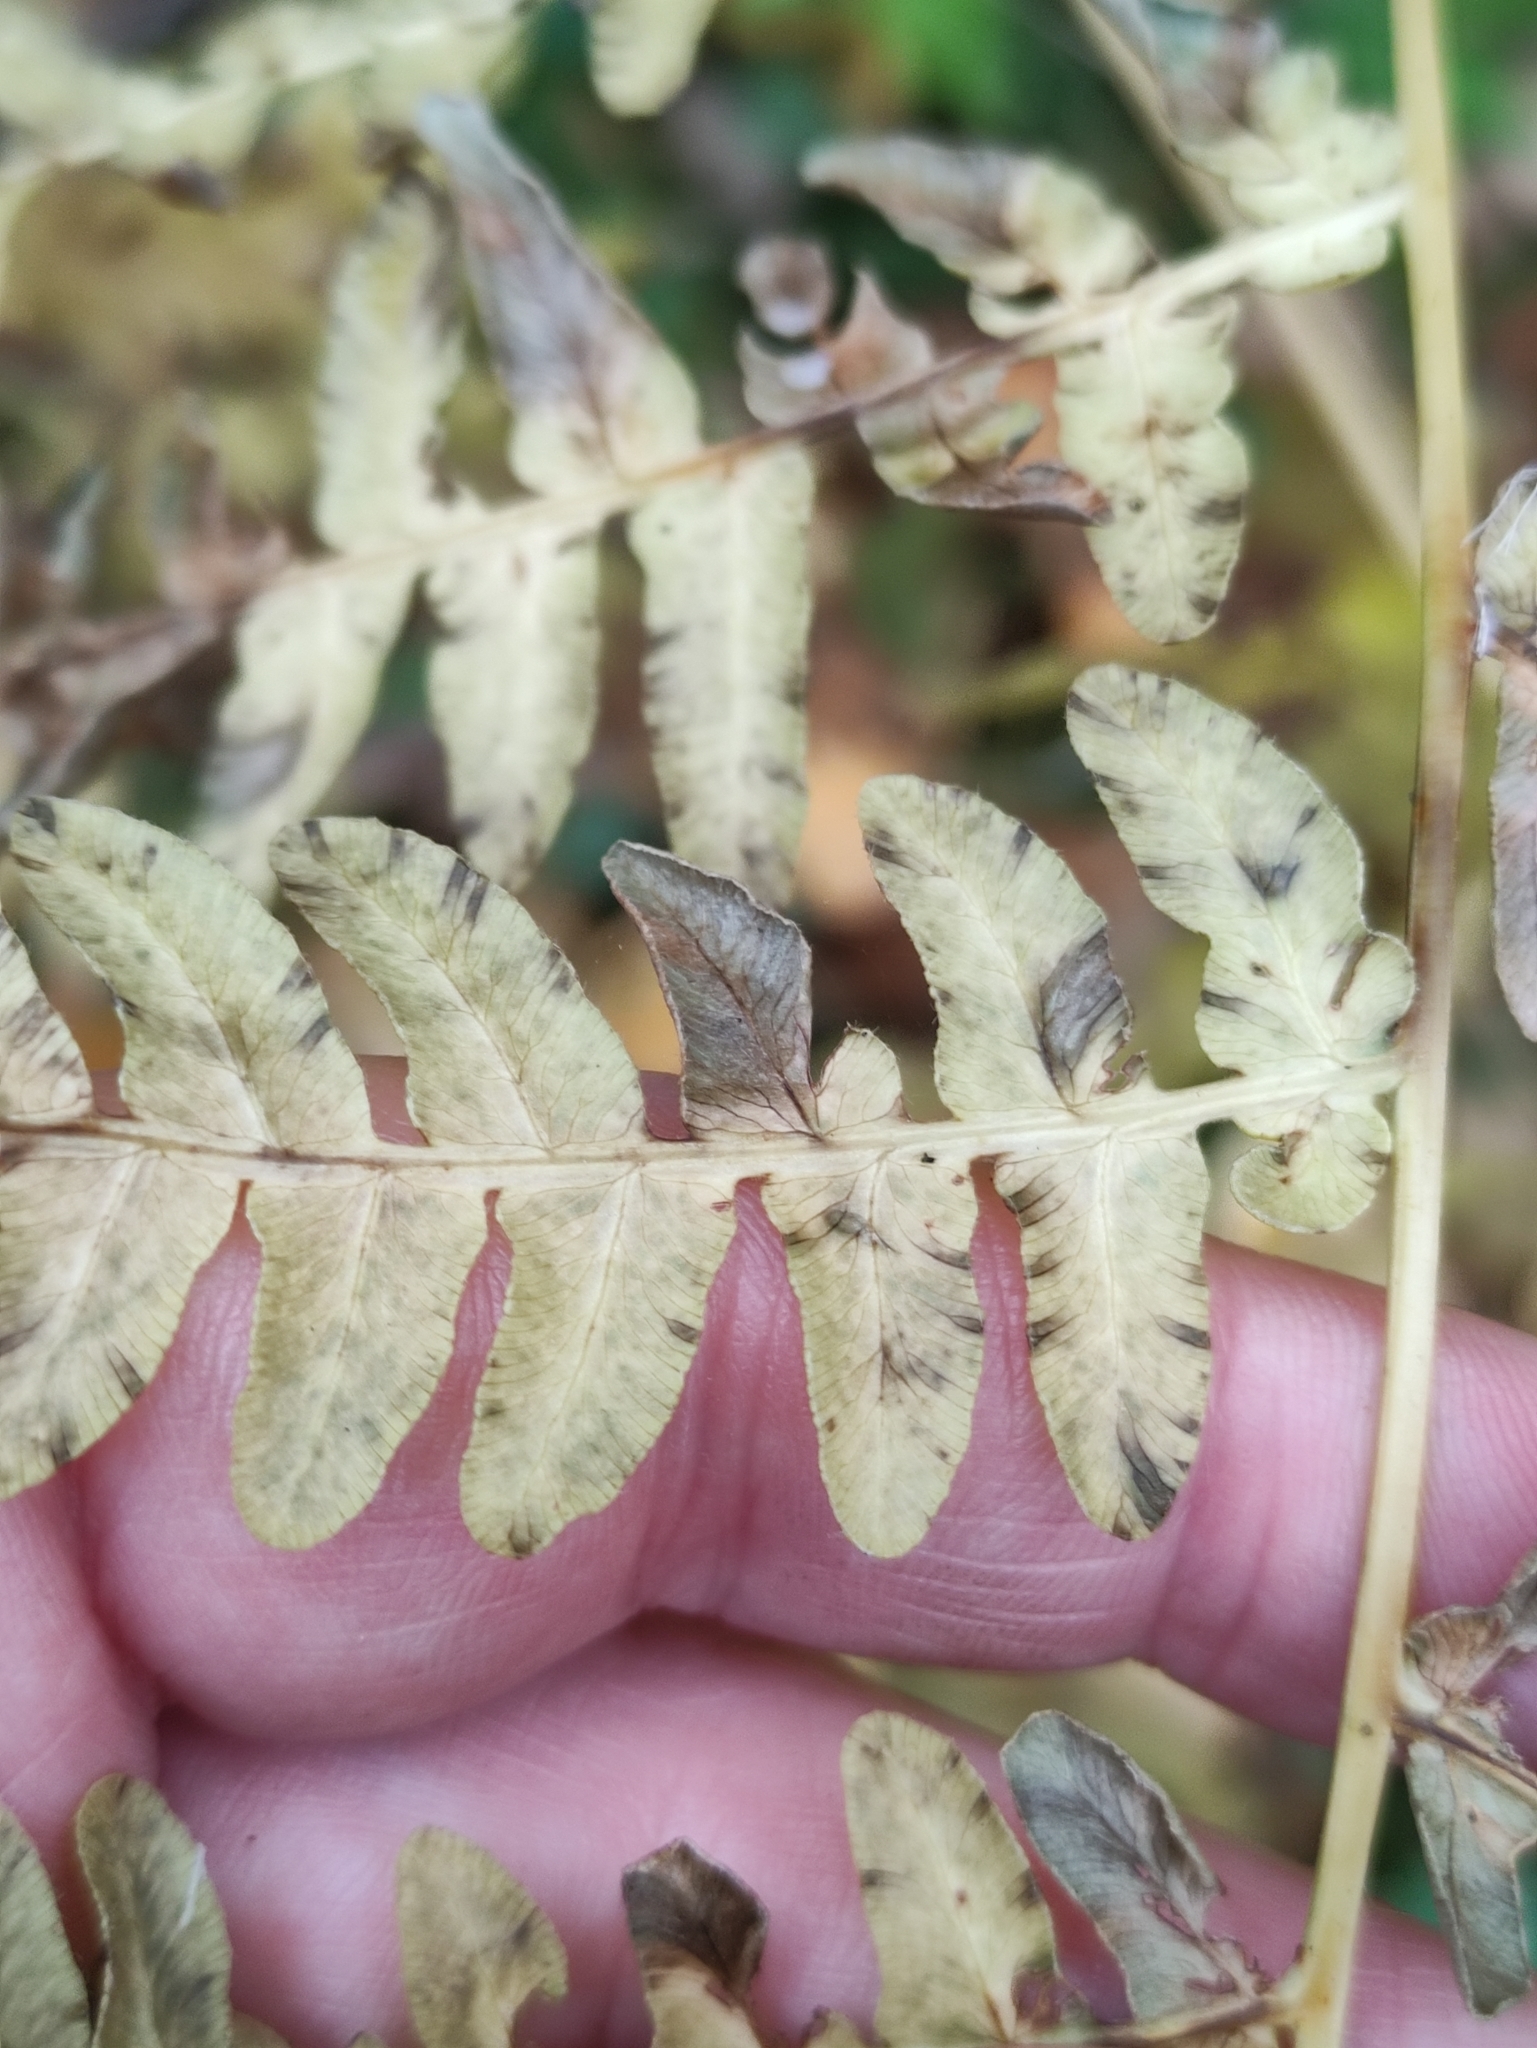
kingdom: Plantae
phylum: Tracheophyta
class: Polypodiopsida
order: Polypodiales
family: Dennstaedtiaceae
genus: Pteridium
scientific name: Pteridium aquilinum
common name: Bracken
